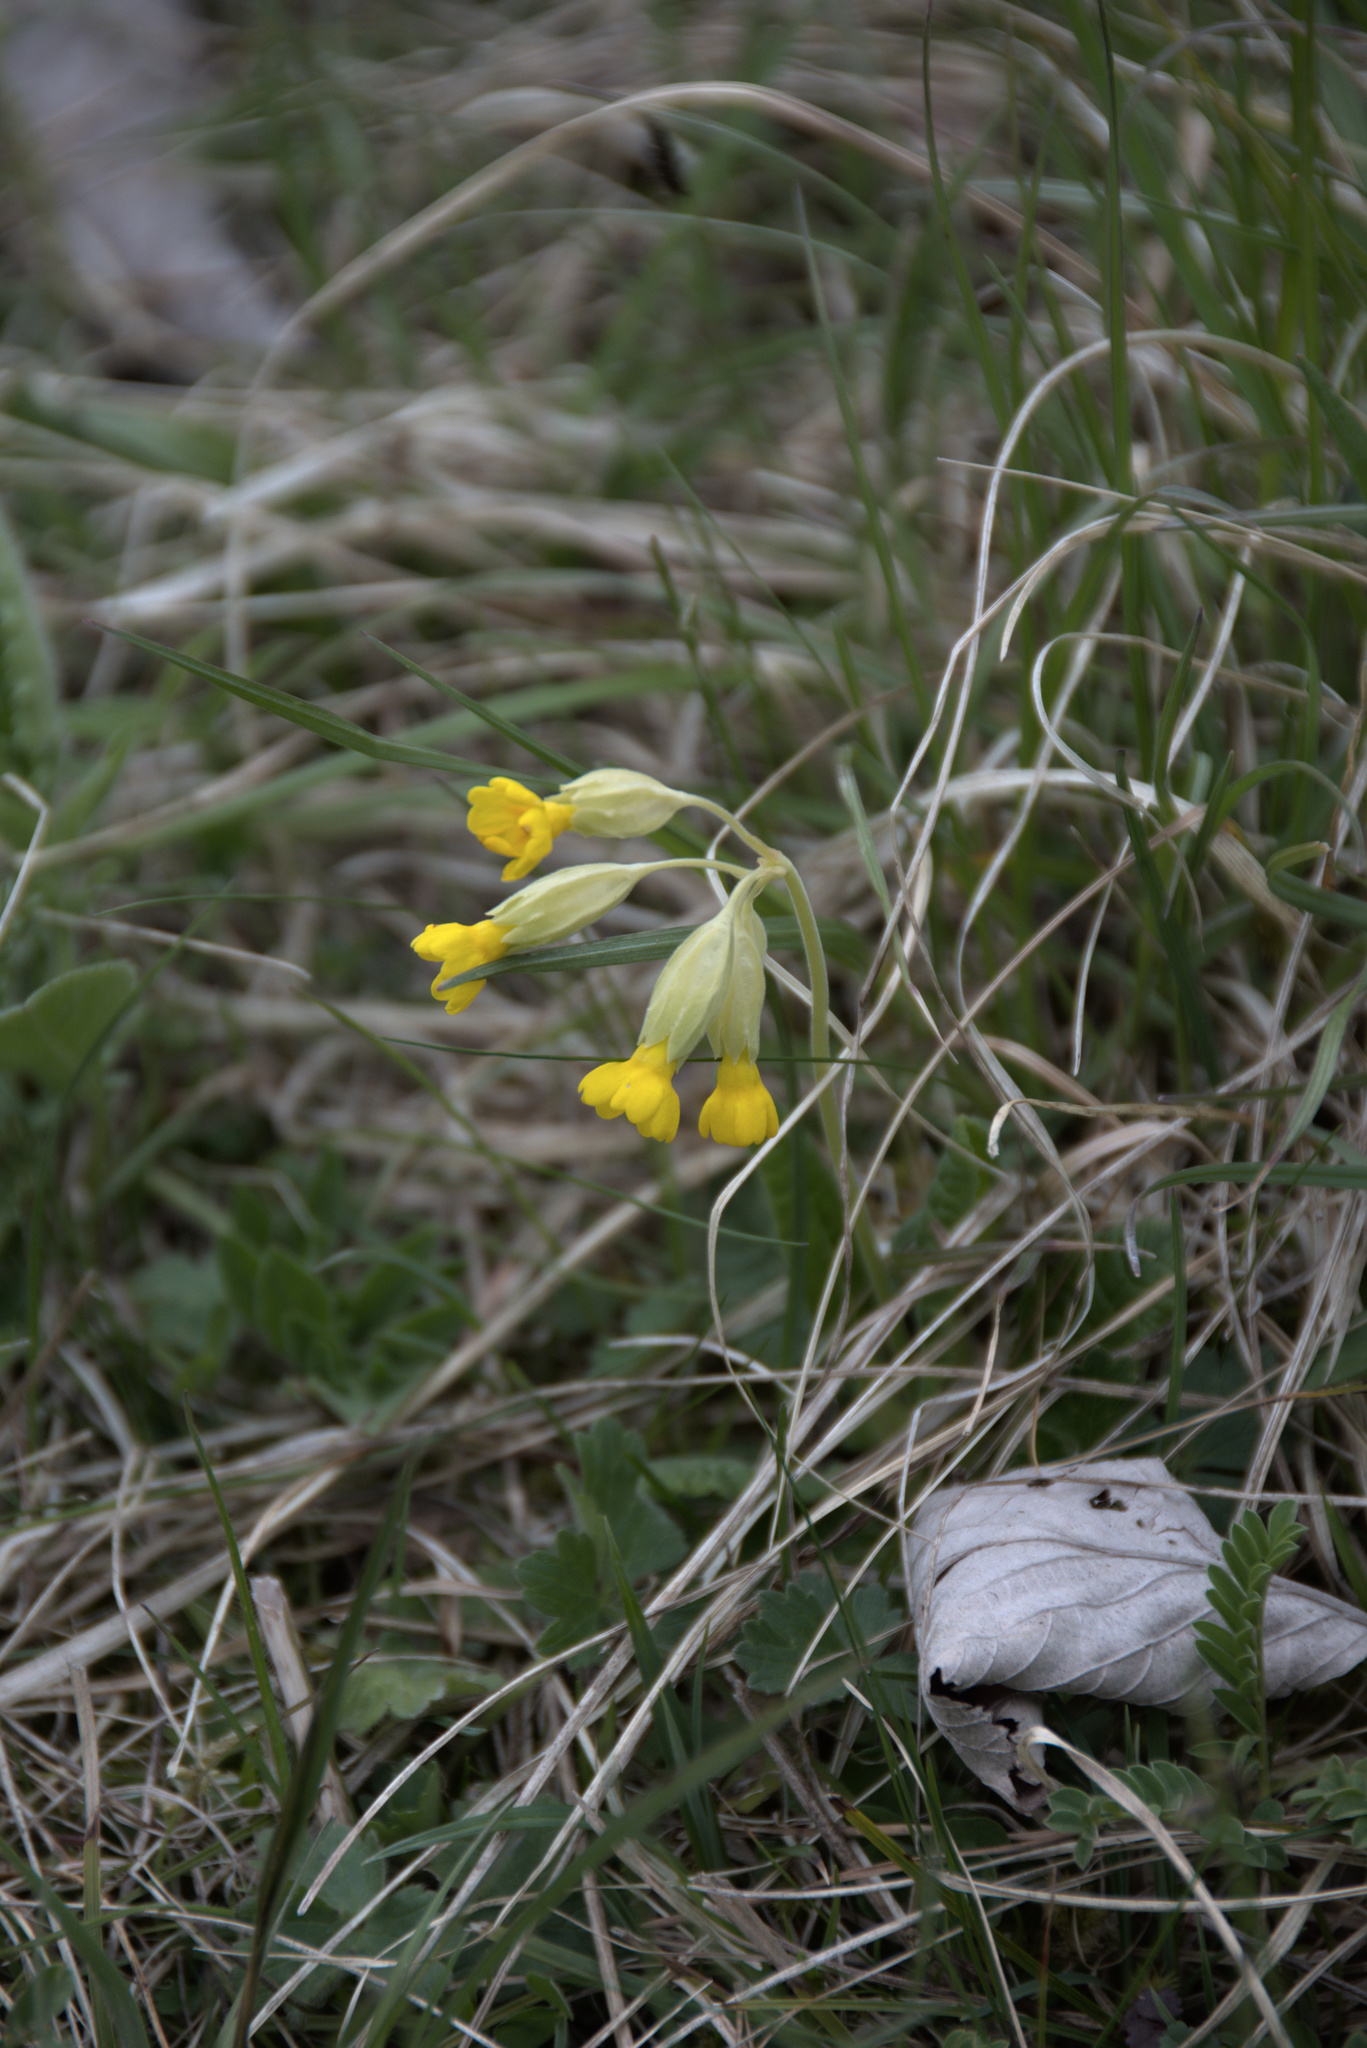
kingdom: Plantae
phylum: Tracheophyta
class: Magnoliopsida
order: Ericales
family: Primulaceae
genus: Primula
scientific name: Primula veris
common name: Cowslip
